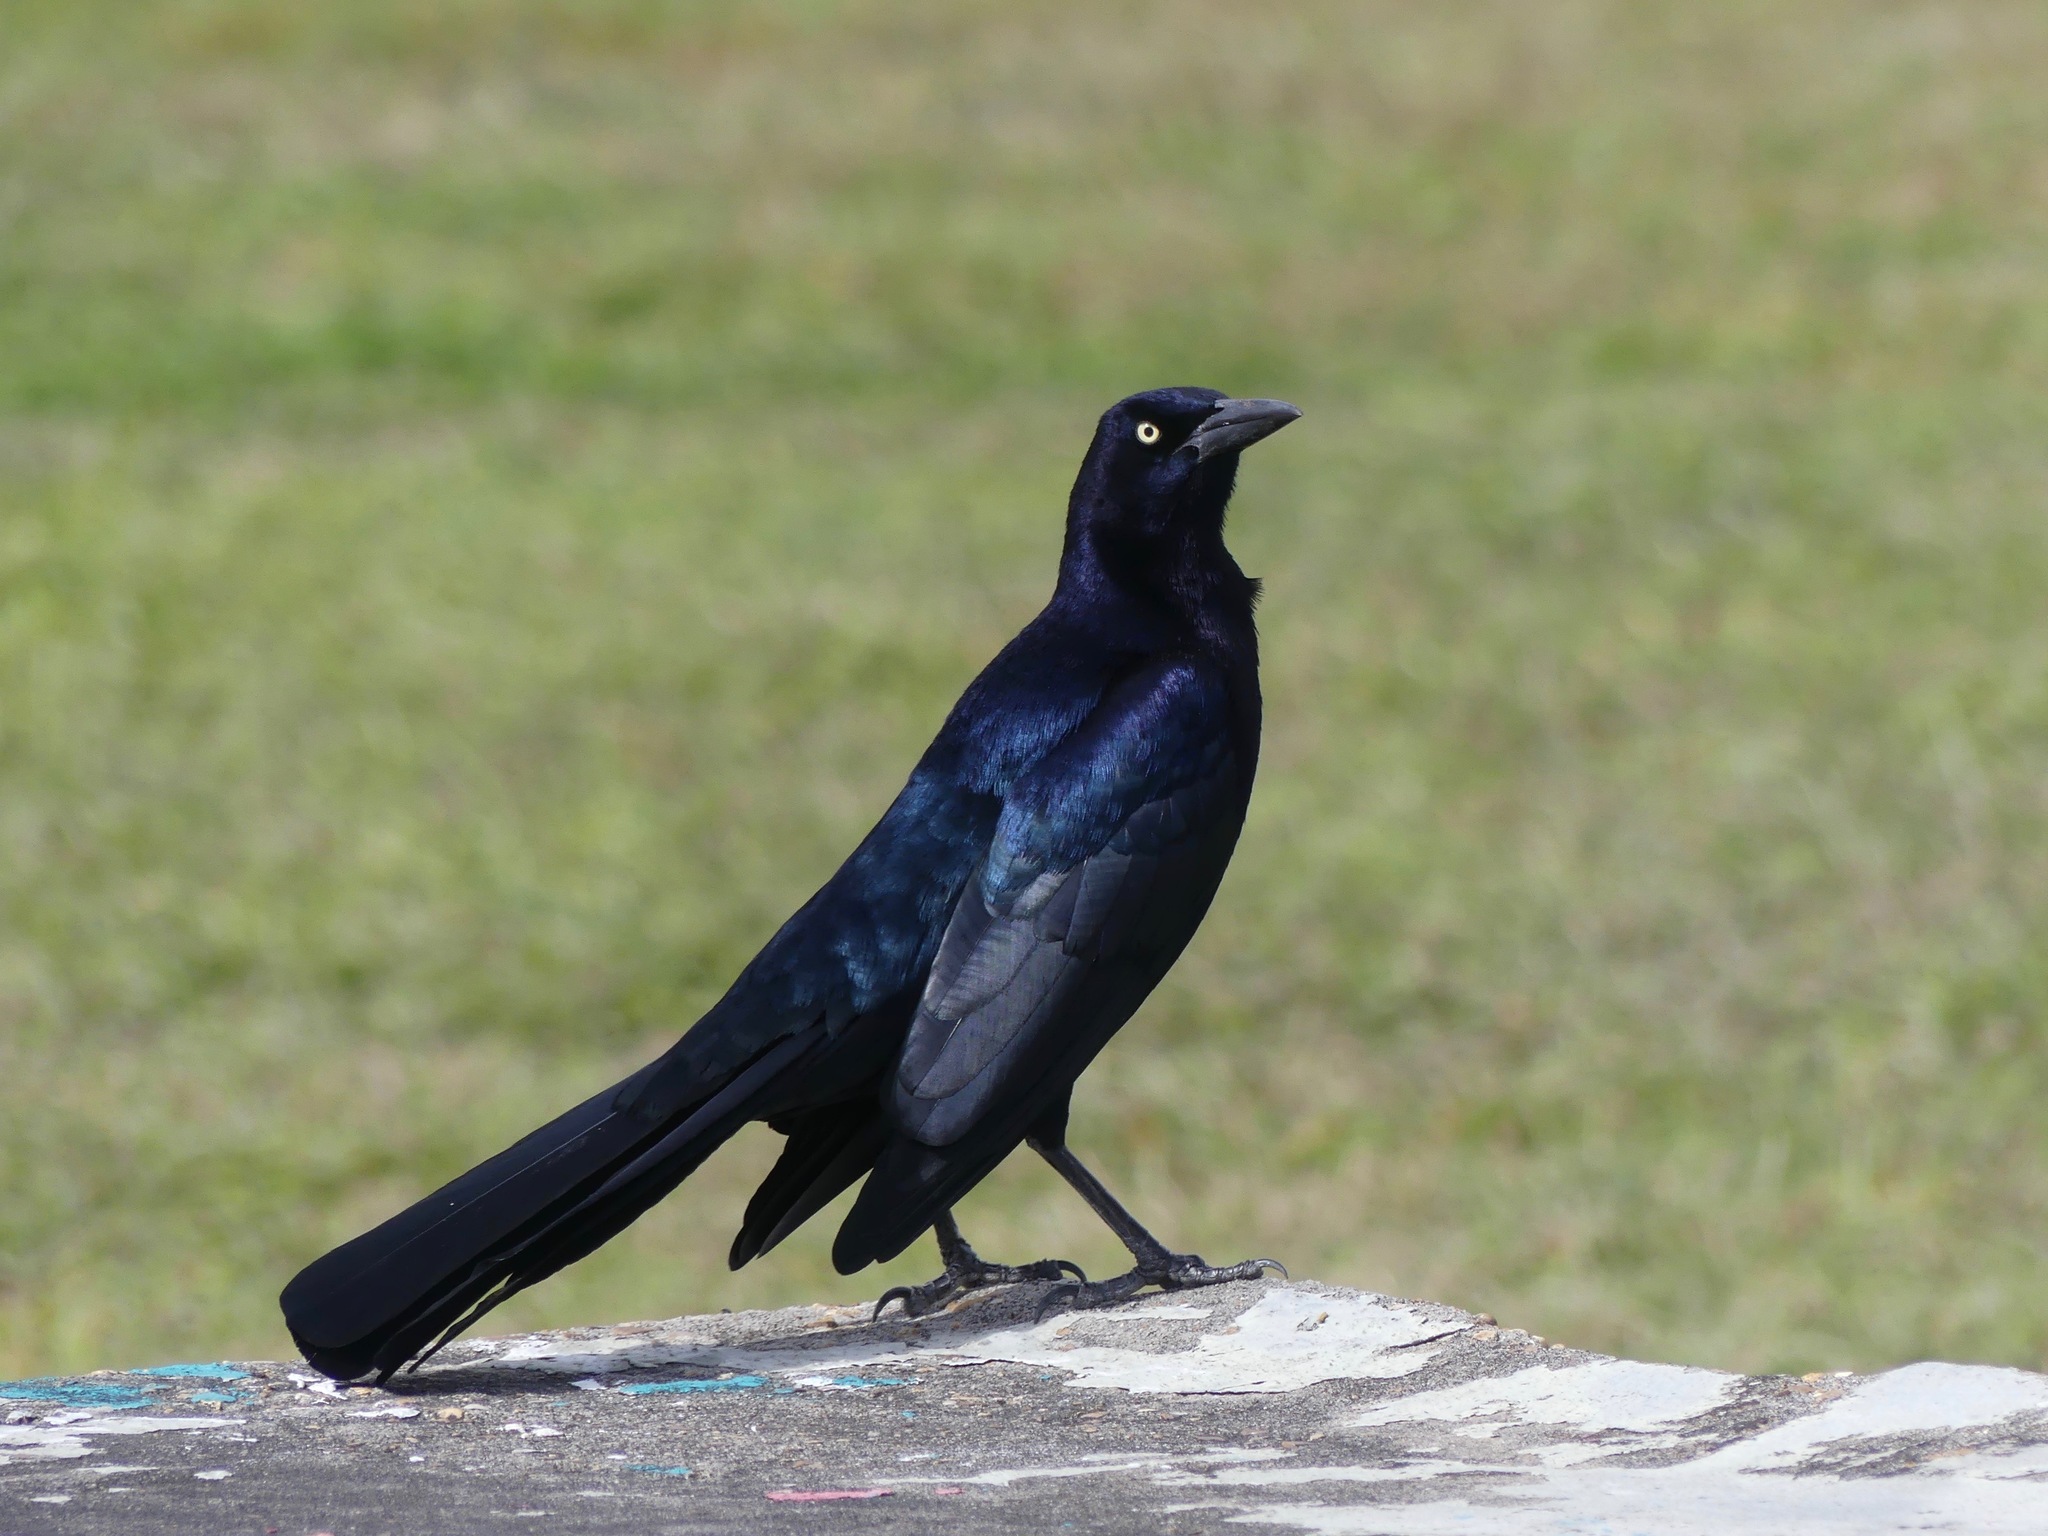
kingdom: Animalia
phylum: Chordata
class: Aves
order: Passeriformes
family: Icteridae
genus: Quiscalus
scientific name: Quiscalus mexicanus
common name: Great-tailed grackle
